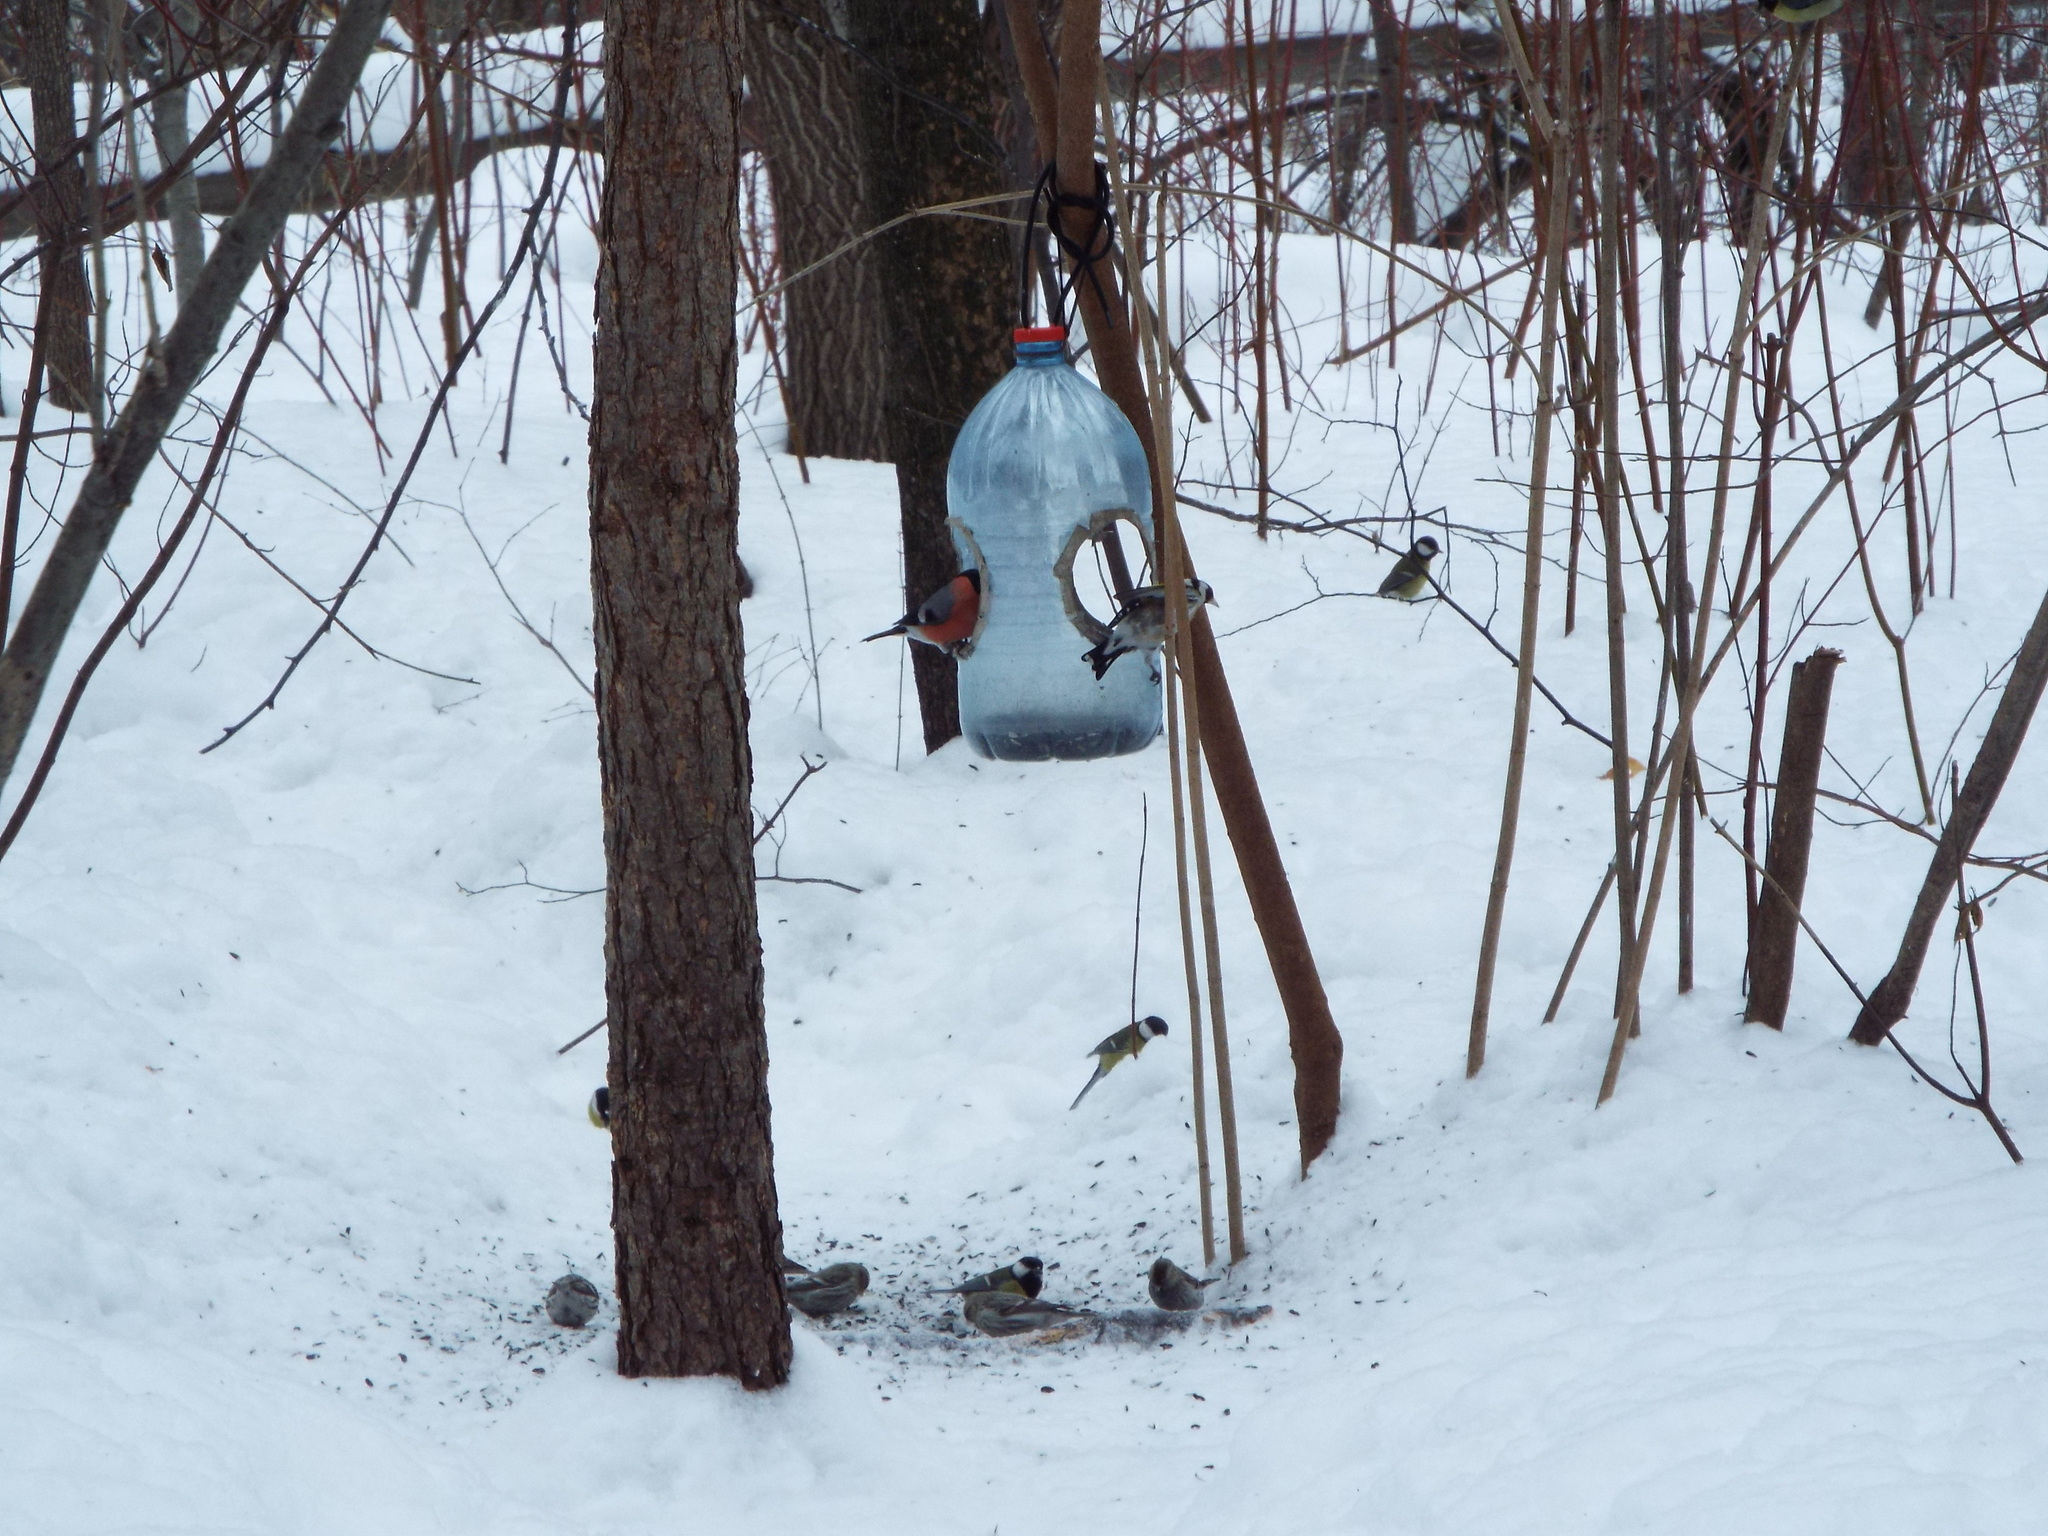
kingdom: Animalia
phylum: Chordata
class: Aves
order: Passeriformes
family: Fringillidae
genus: Acanthis
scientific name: Acanthis flammea
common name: Common redpoll
